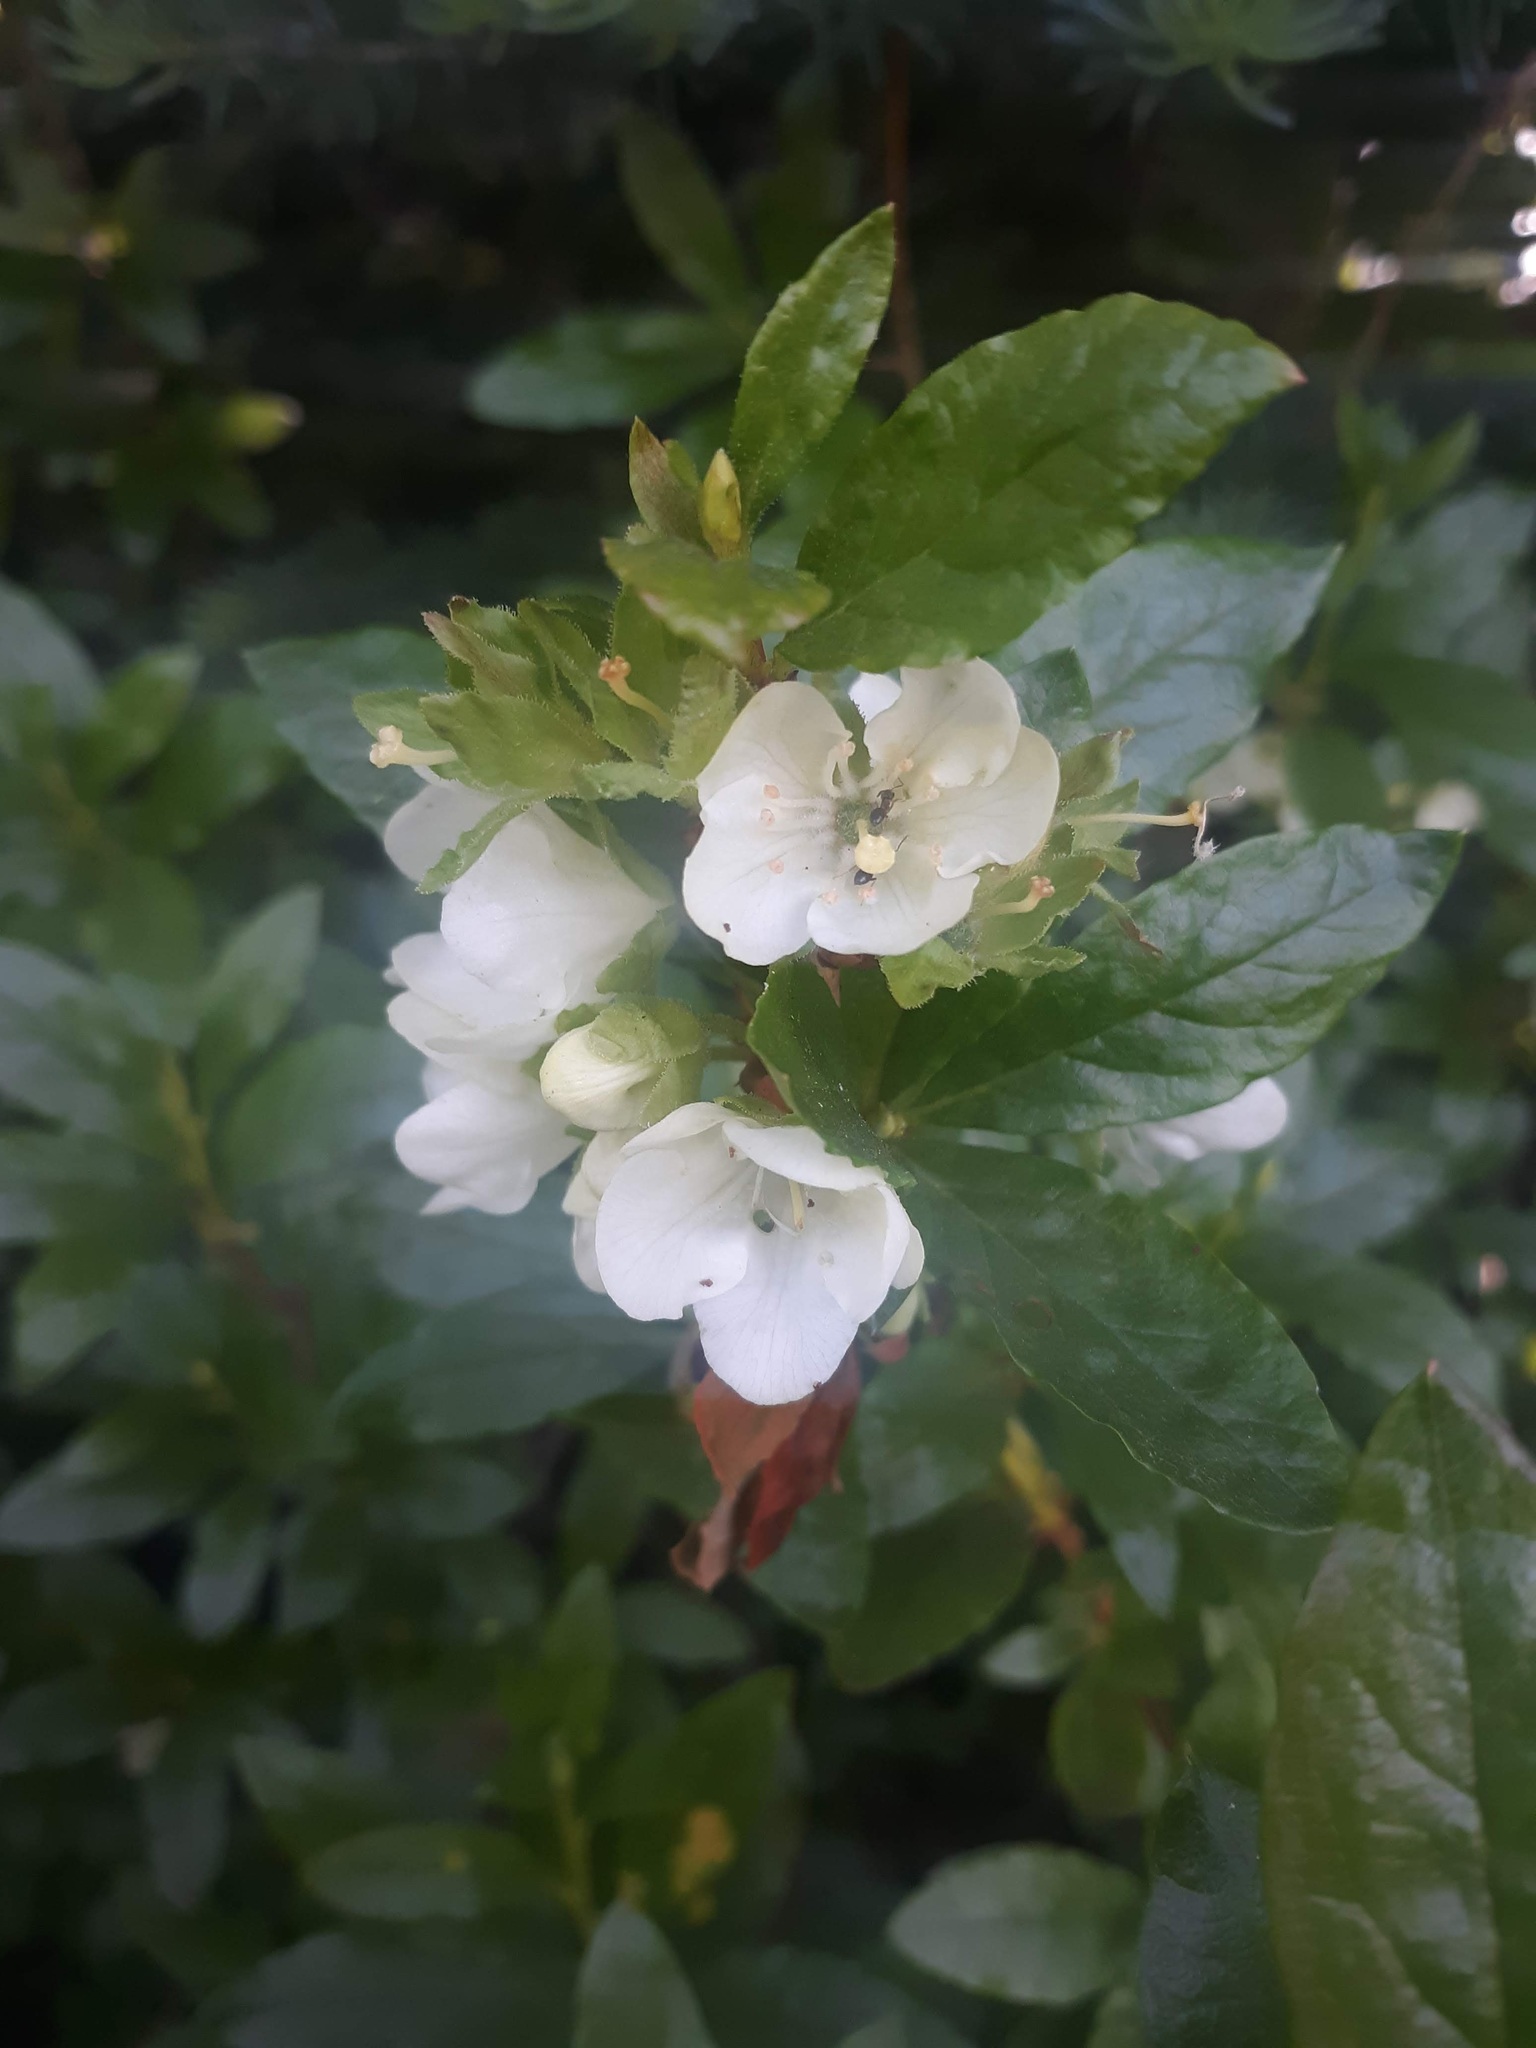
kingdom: Plantae
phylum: Tracheophyta
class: Magnoliopsida
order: Ericales
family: Ericaceae
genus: Rhododendron
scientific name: Rhododendron albiflorum
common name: White rhododendron
